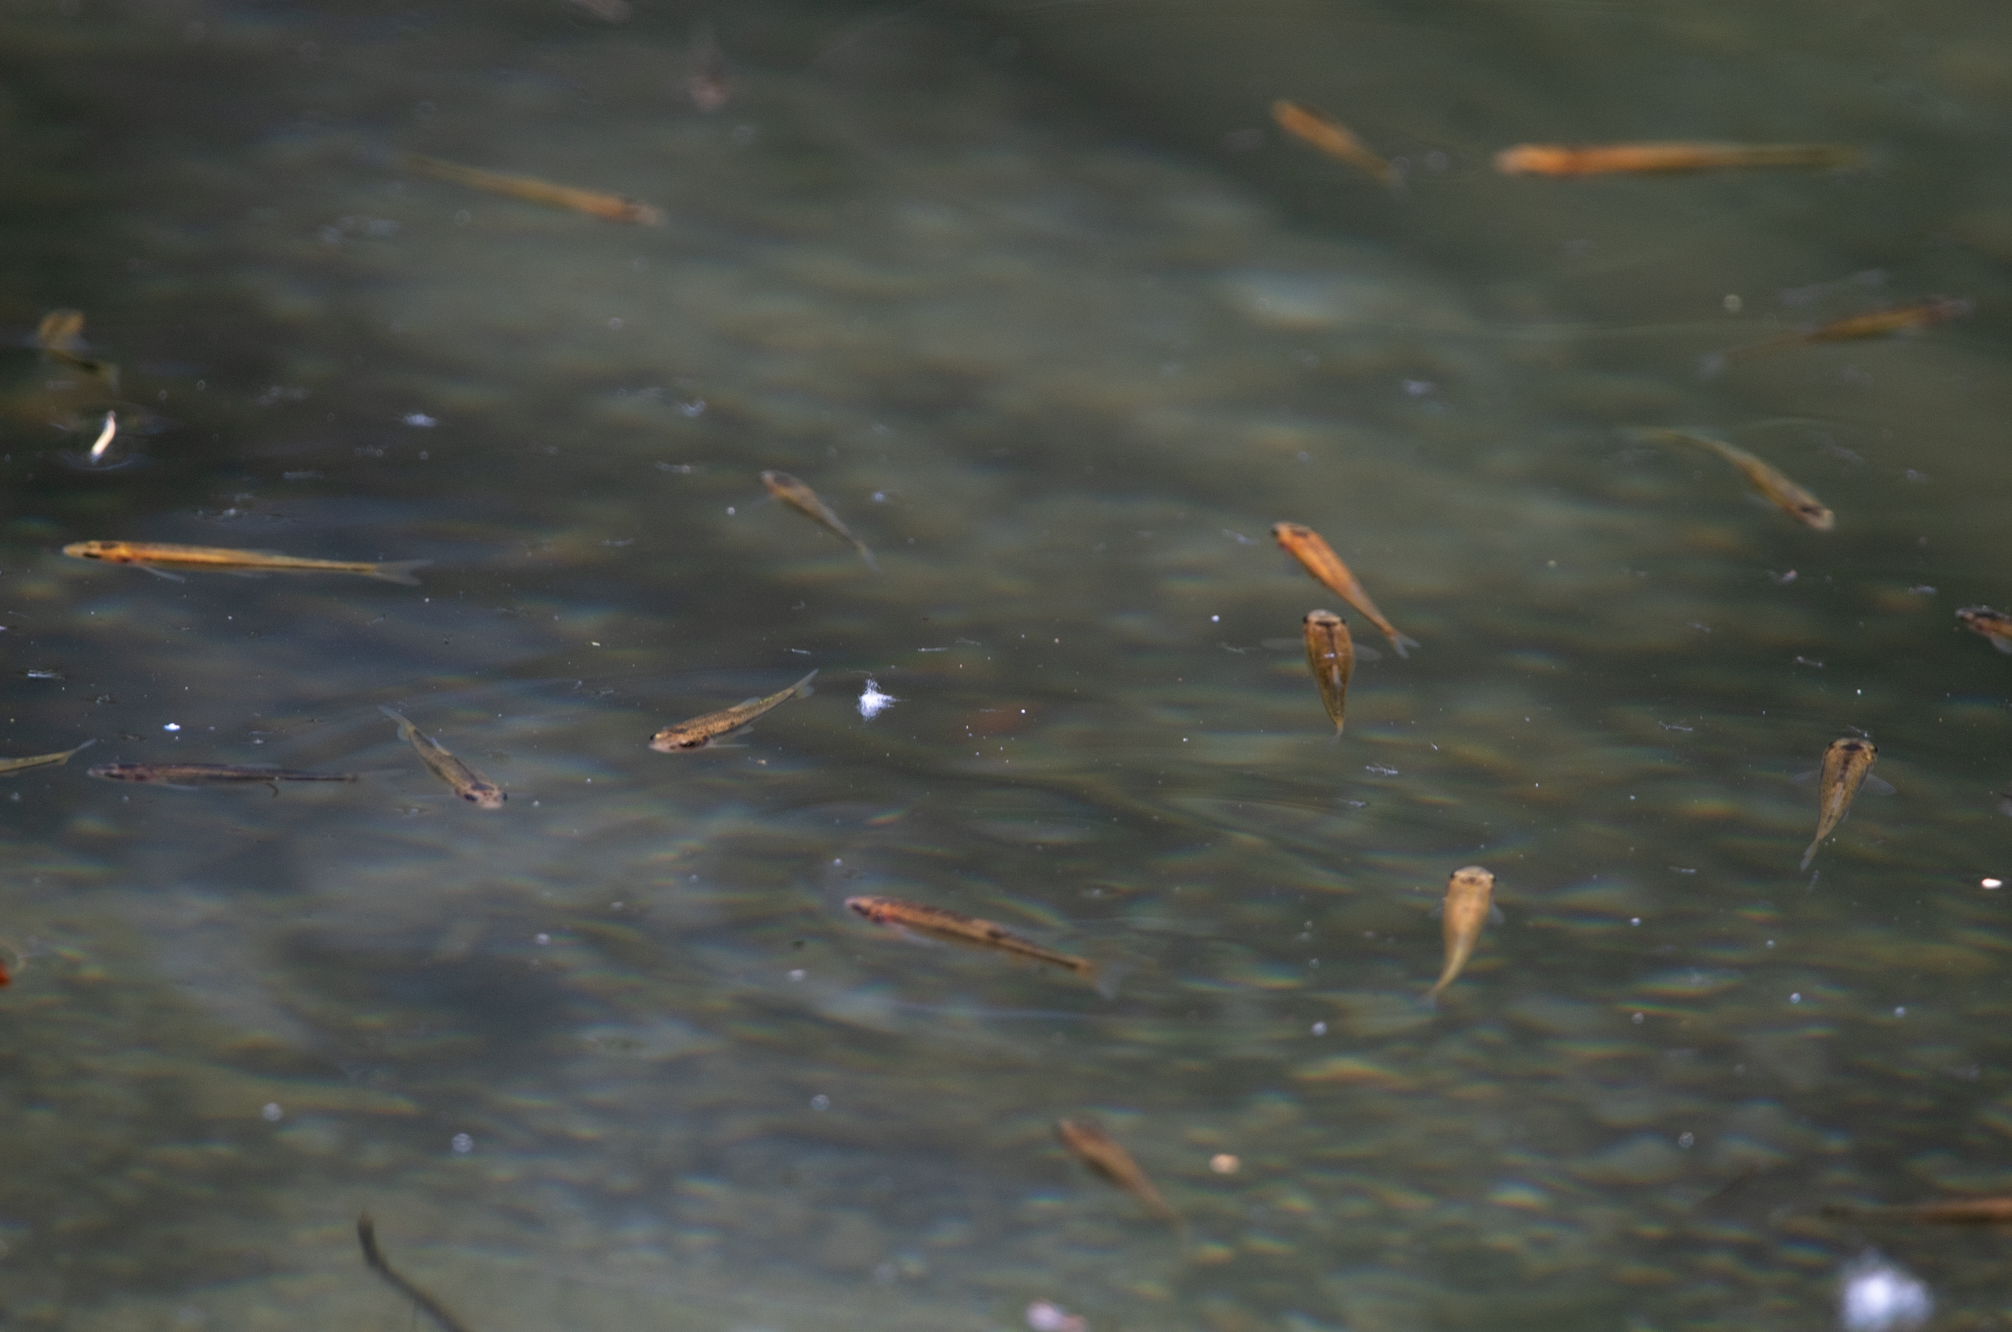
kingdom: Animalia
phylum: Chordata
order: Cypriniformes
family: Cyprinidae
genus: Pimephales
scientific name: Pimephales promelas
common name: Fathead minnow
